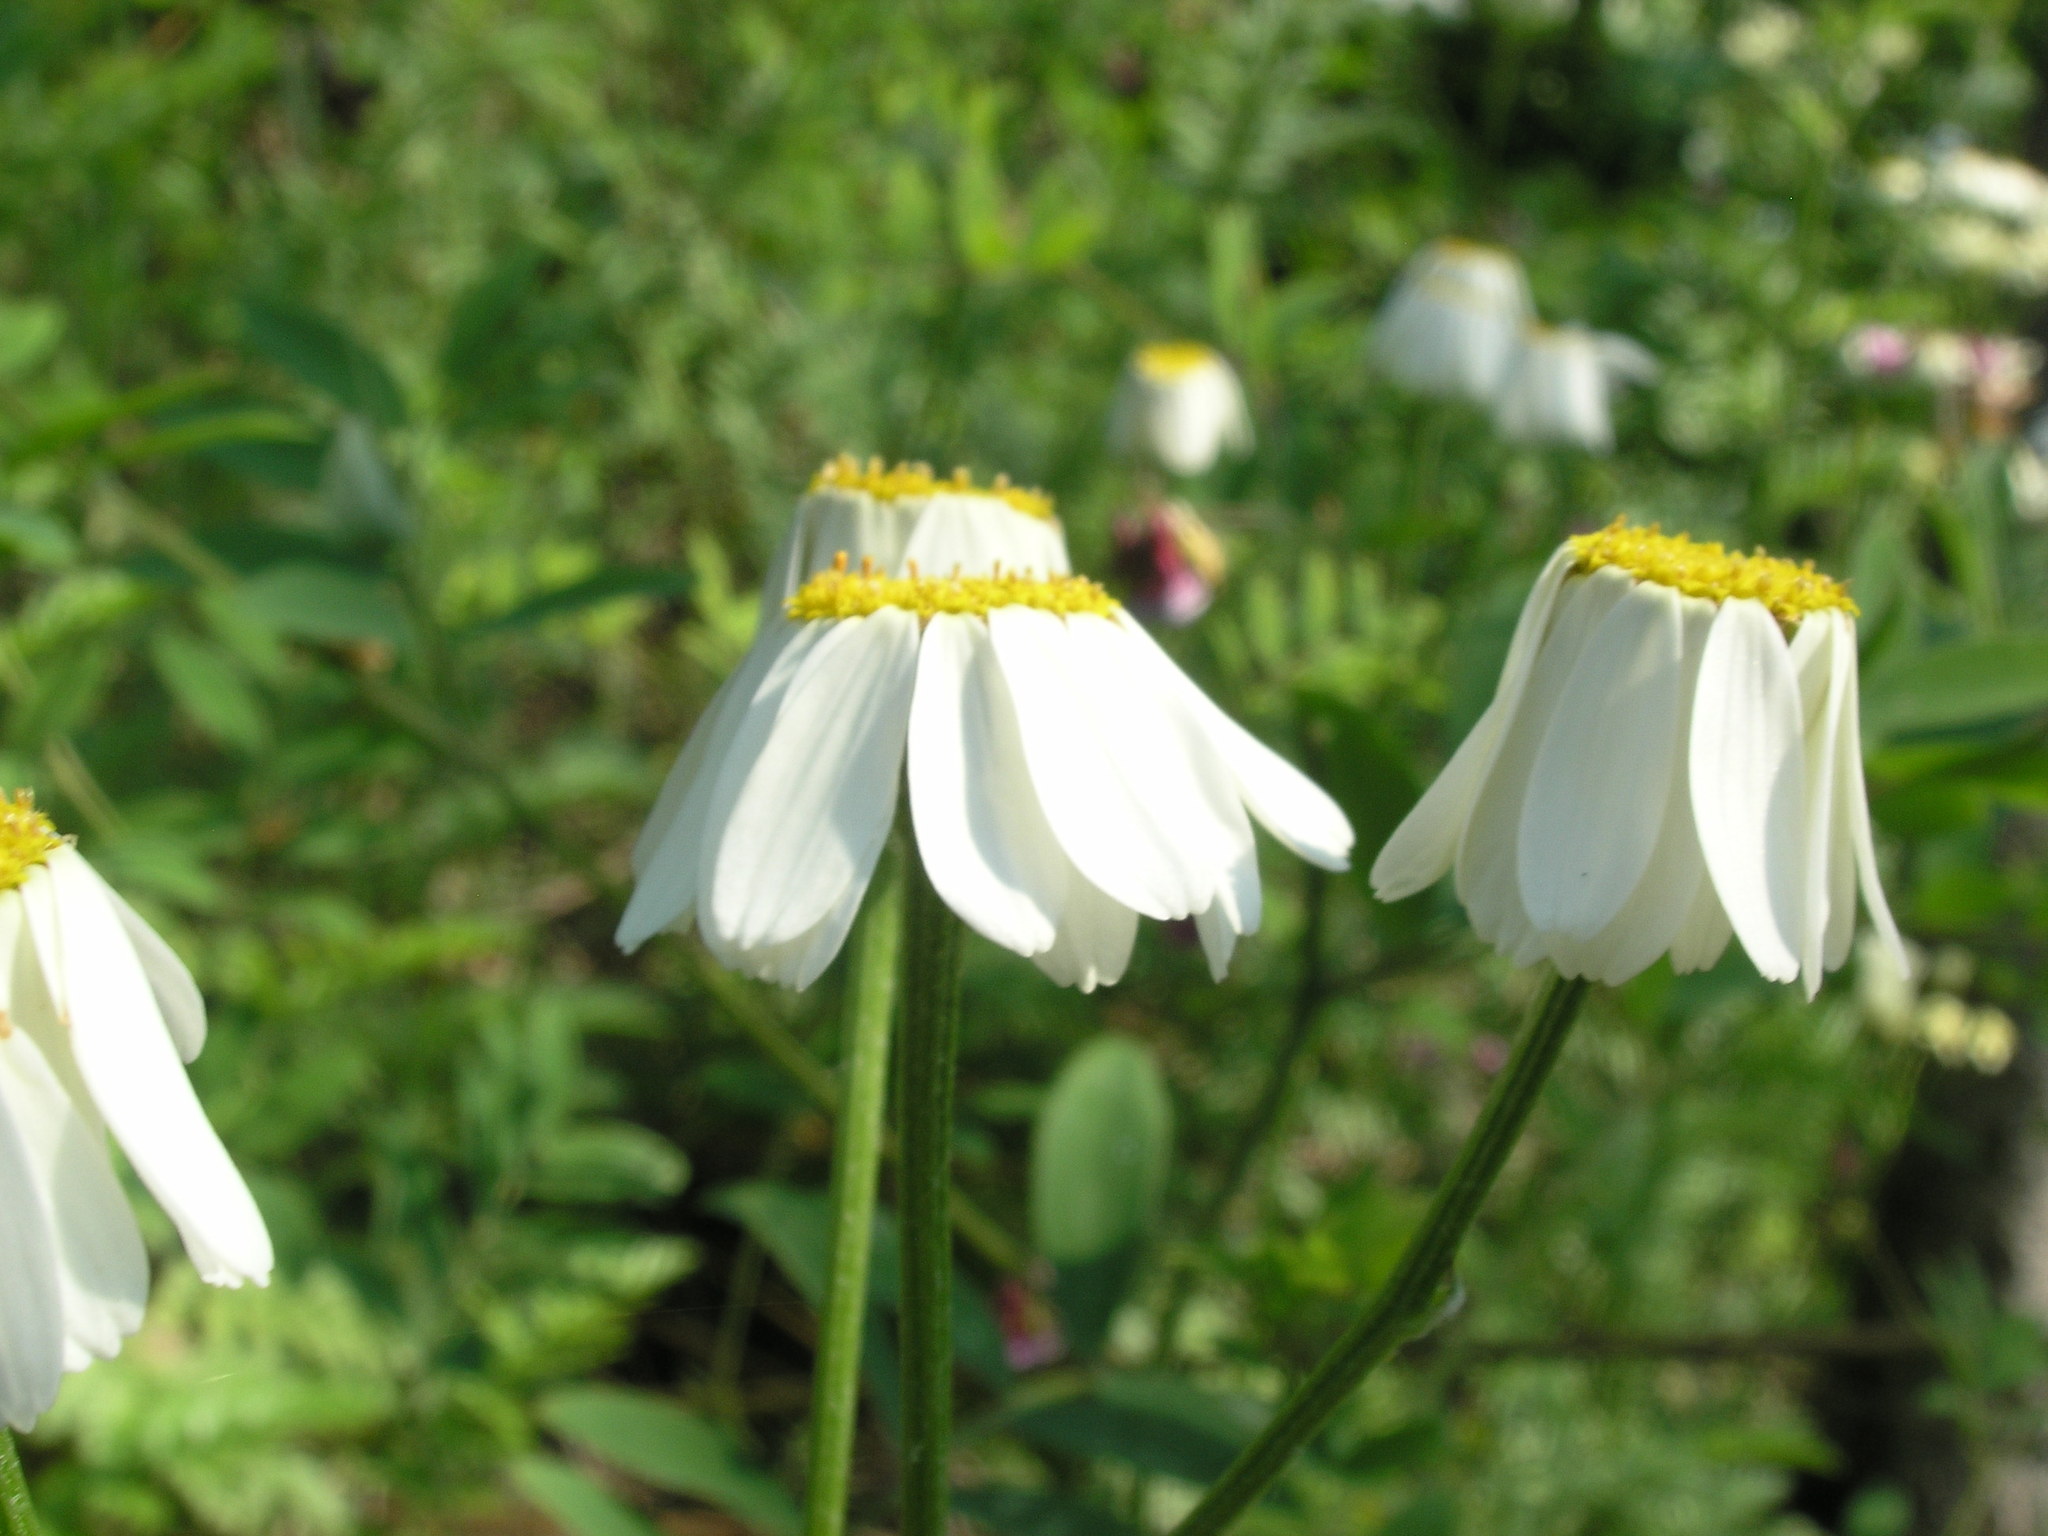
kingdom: Plantae
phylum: Tracheophyta
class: Magnoliopsida
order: Asterales
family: Asteraceae
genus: Tanacetum
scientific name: Tanacetum corymbosum
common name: Scentless feverfew
